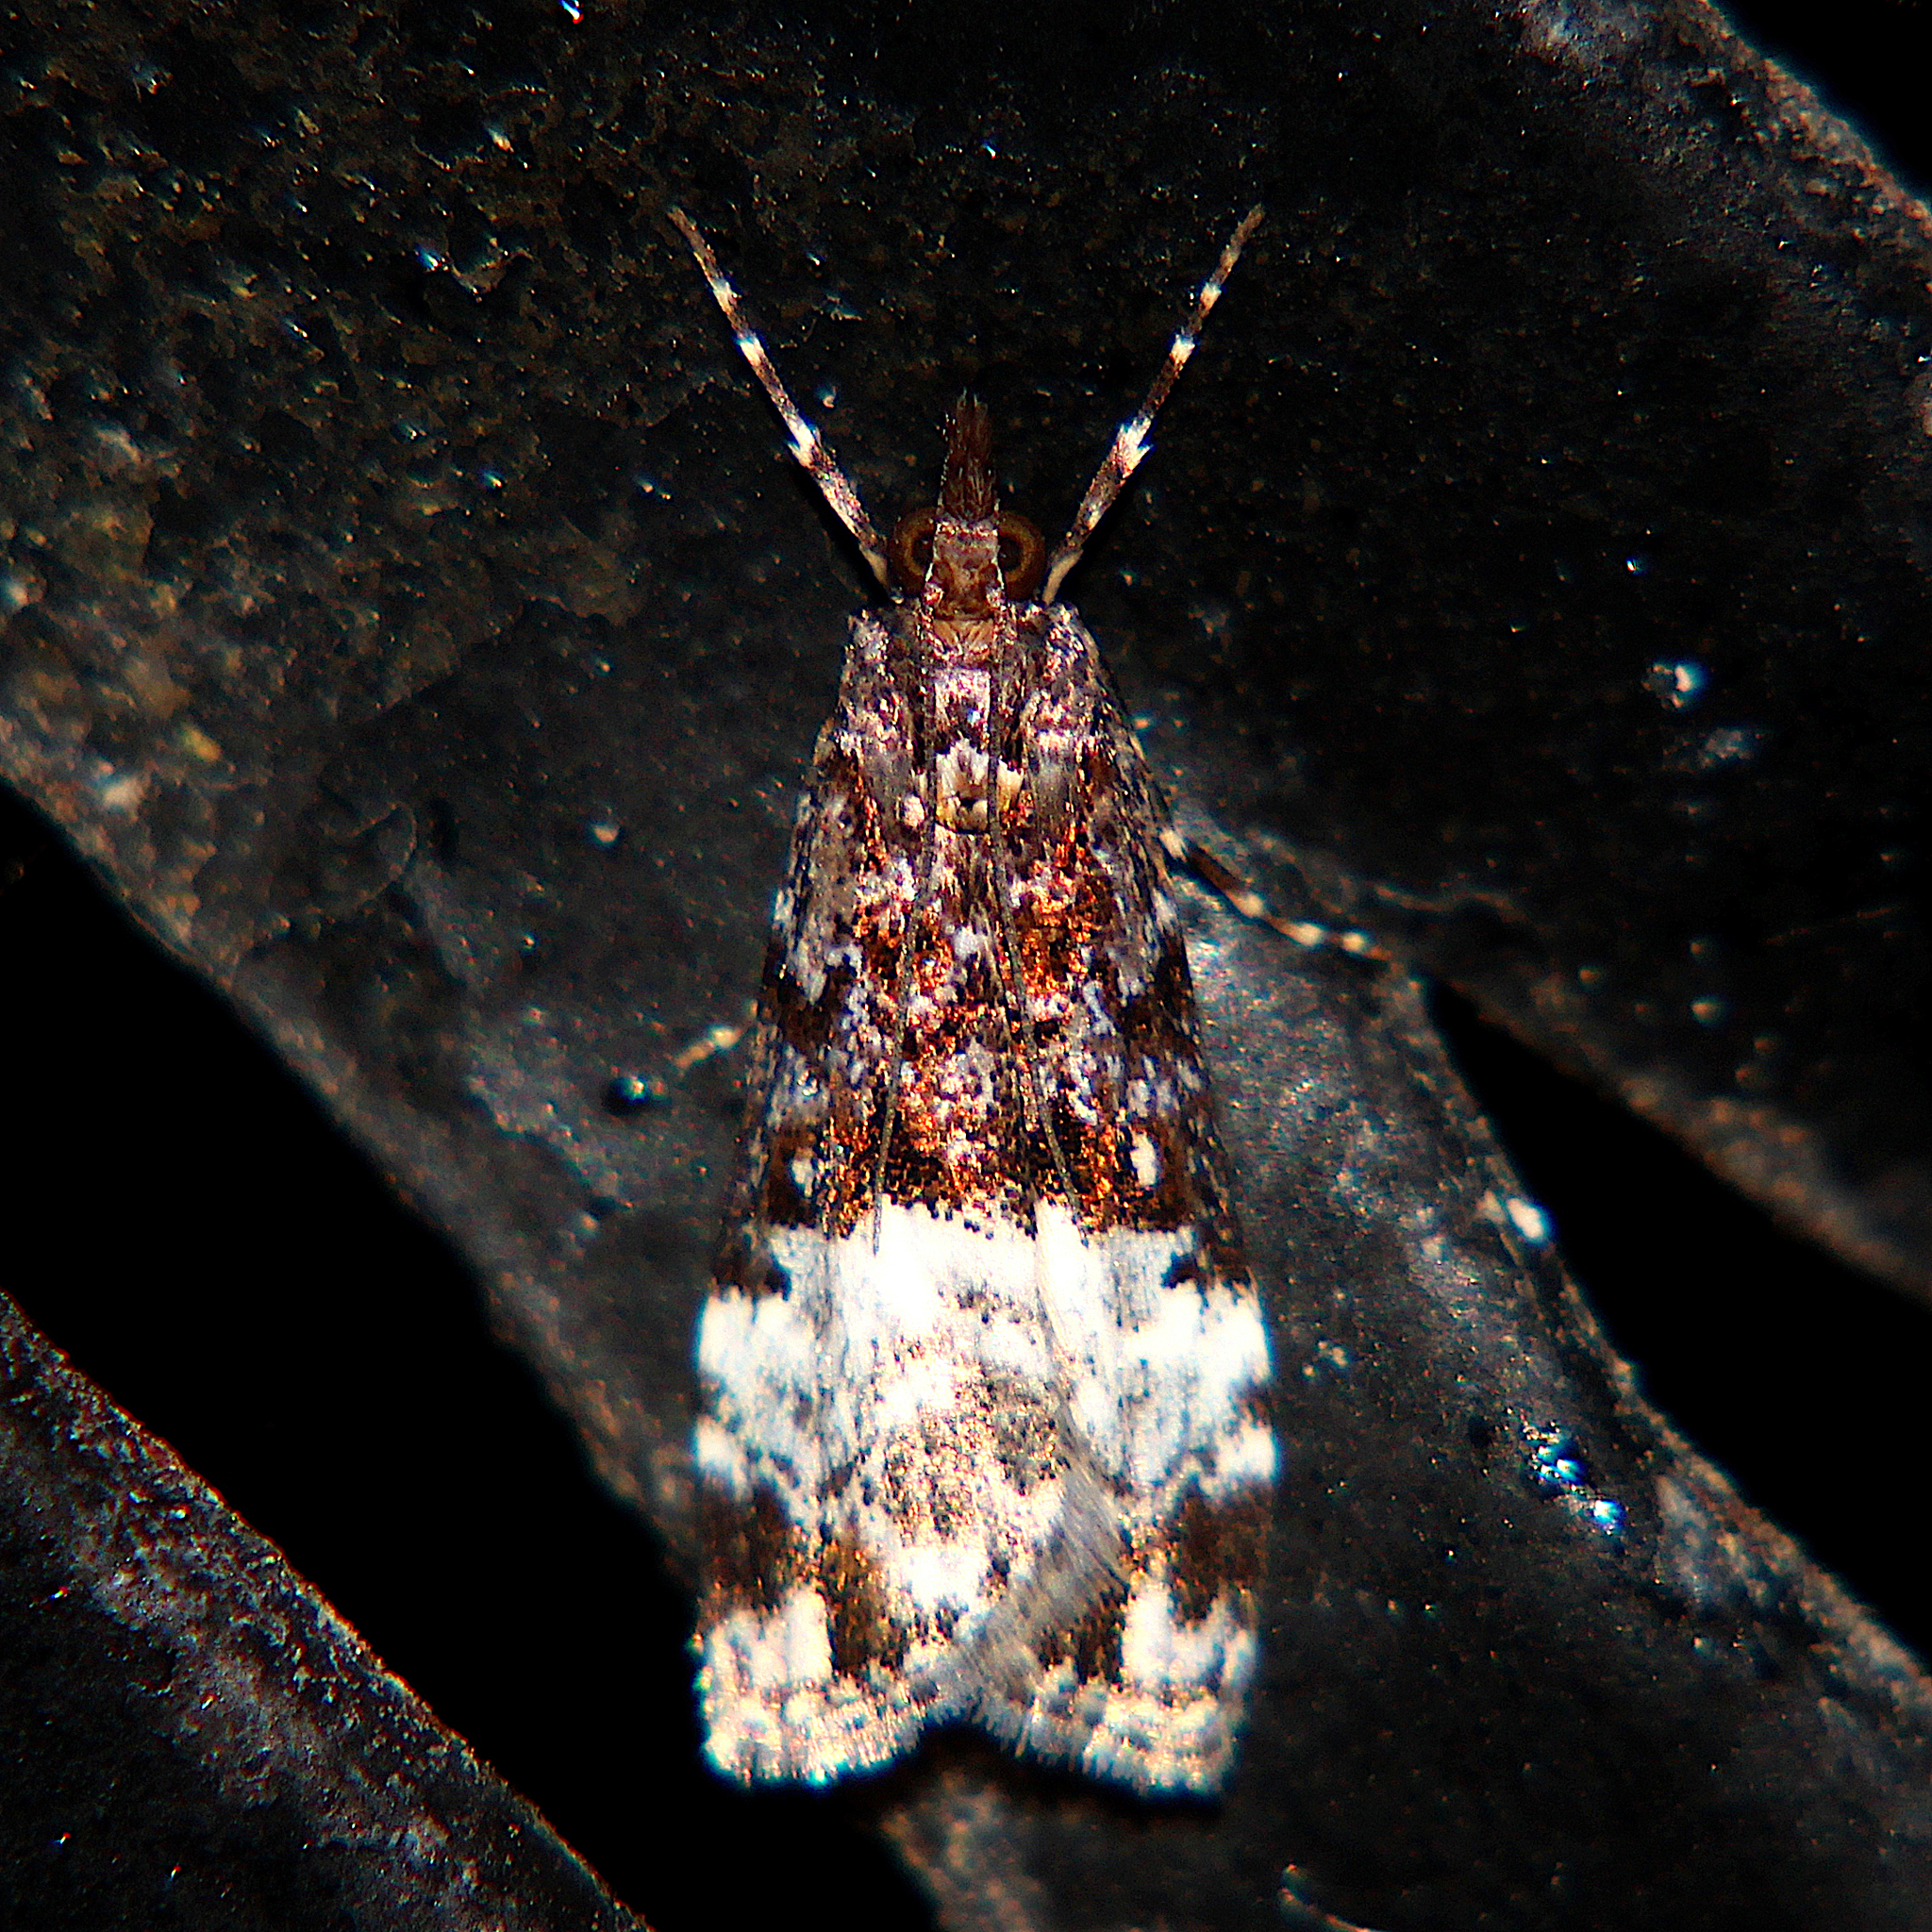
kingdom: Animalia
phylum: Arthropoda
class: Insecta
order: Lepidoptera
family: Crambidae
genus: Scoparia
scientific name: Scoparia minusculalis
